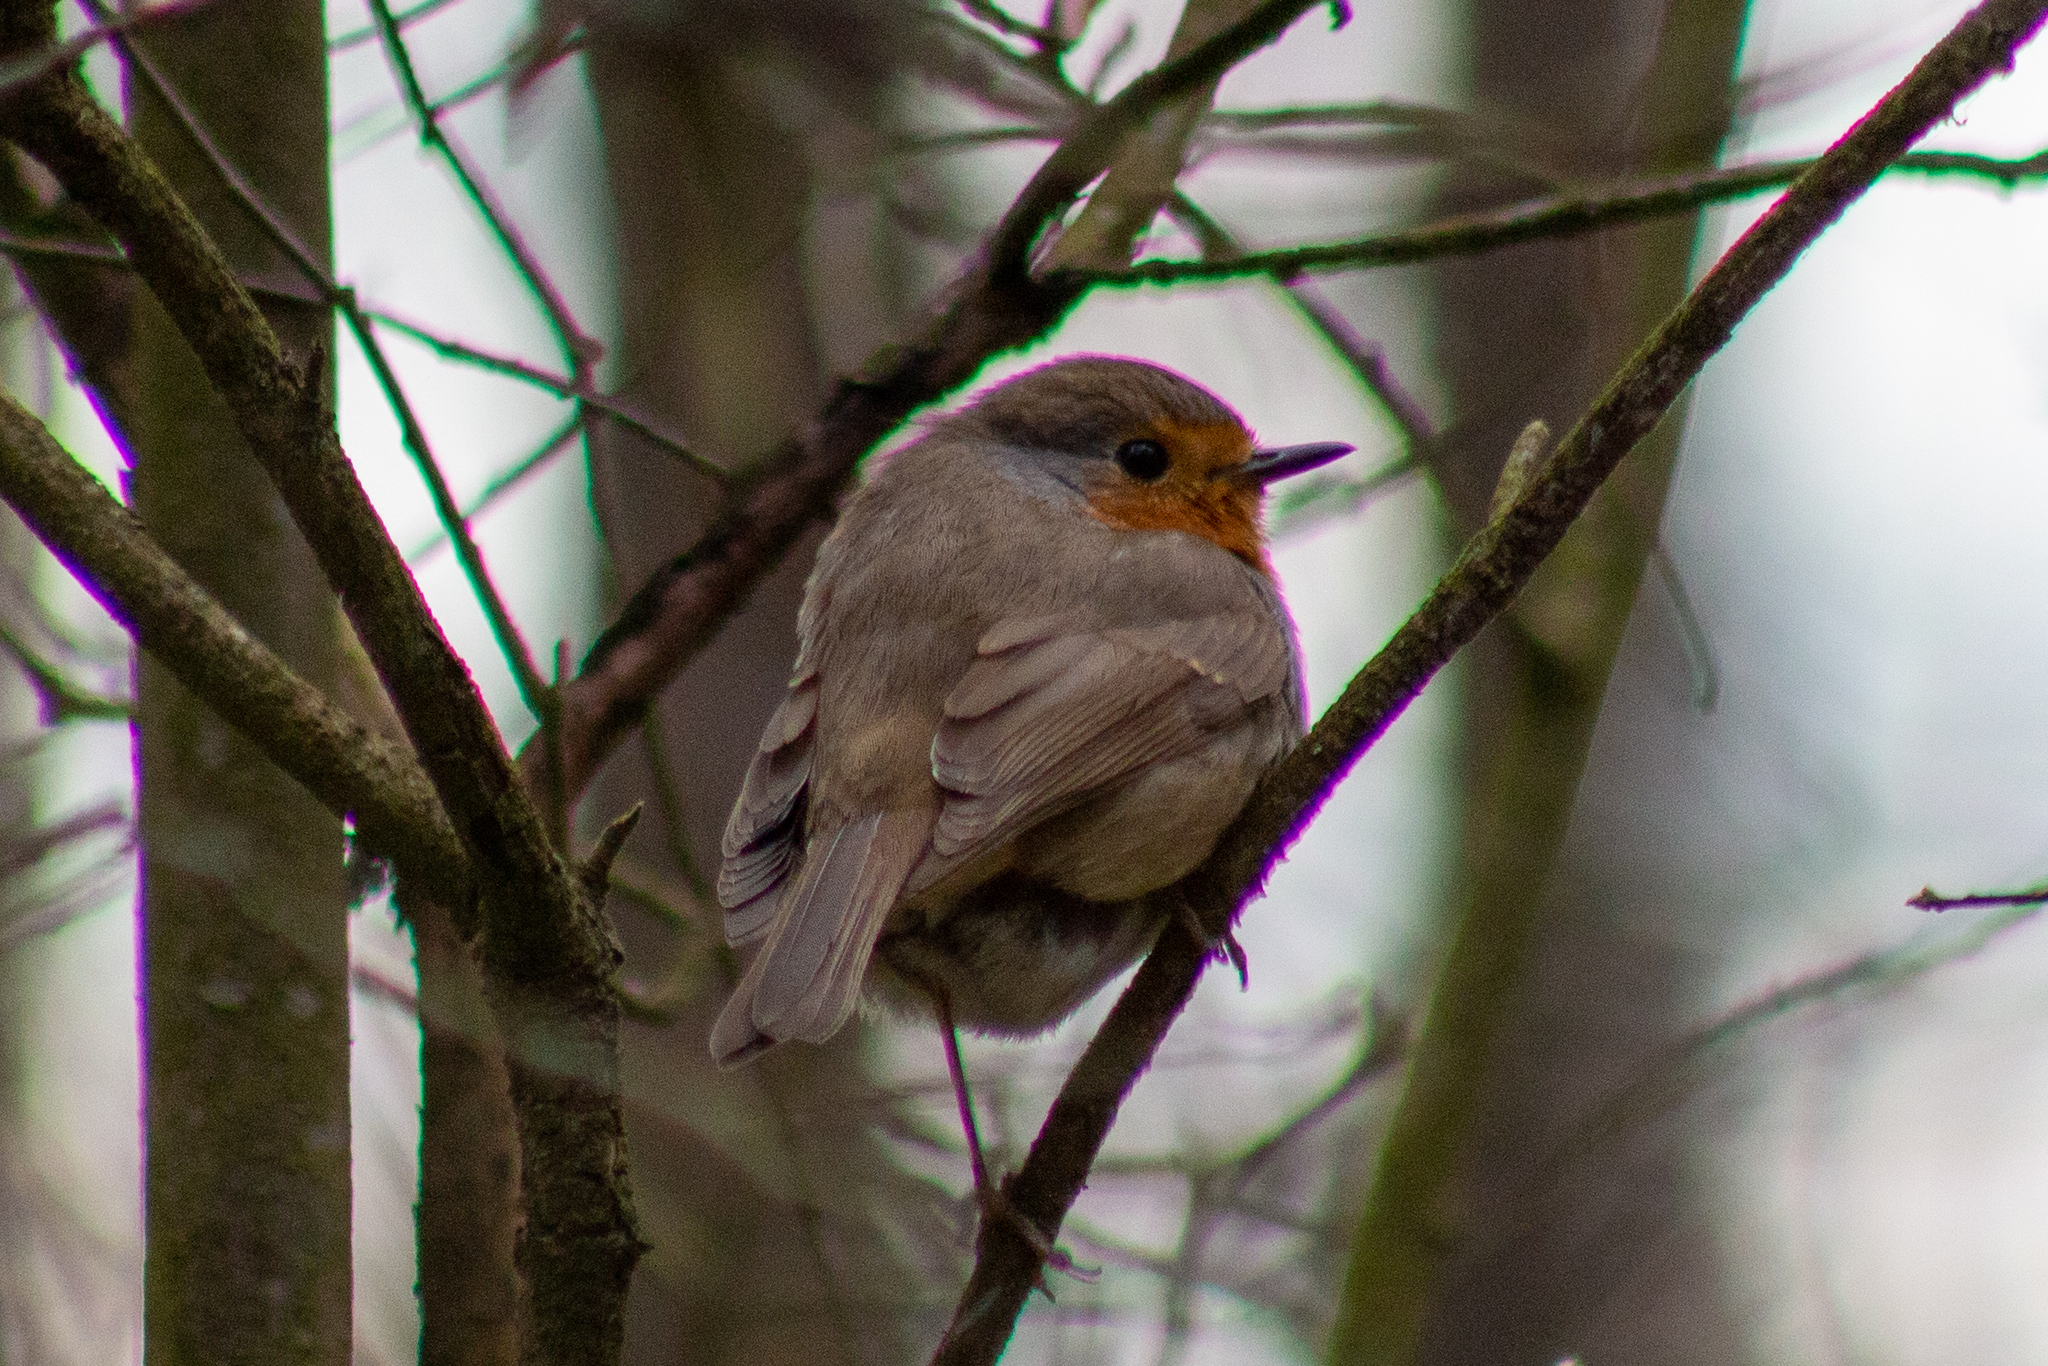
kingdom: Animalia
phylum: Chordata
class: Aves
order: Passeriformes
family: Muscicapidae
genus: Erithacus
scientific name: Erithacus rubecula
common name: European robin
